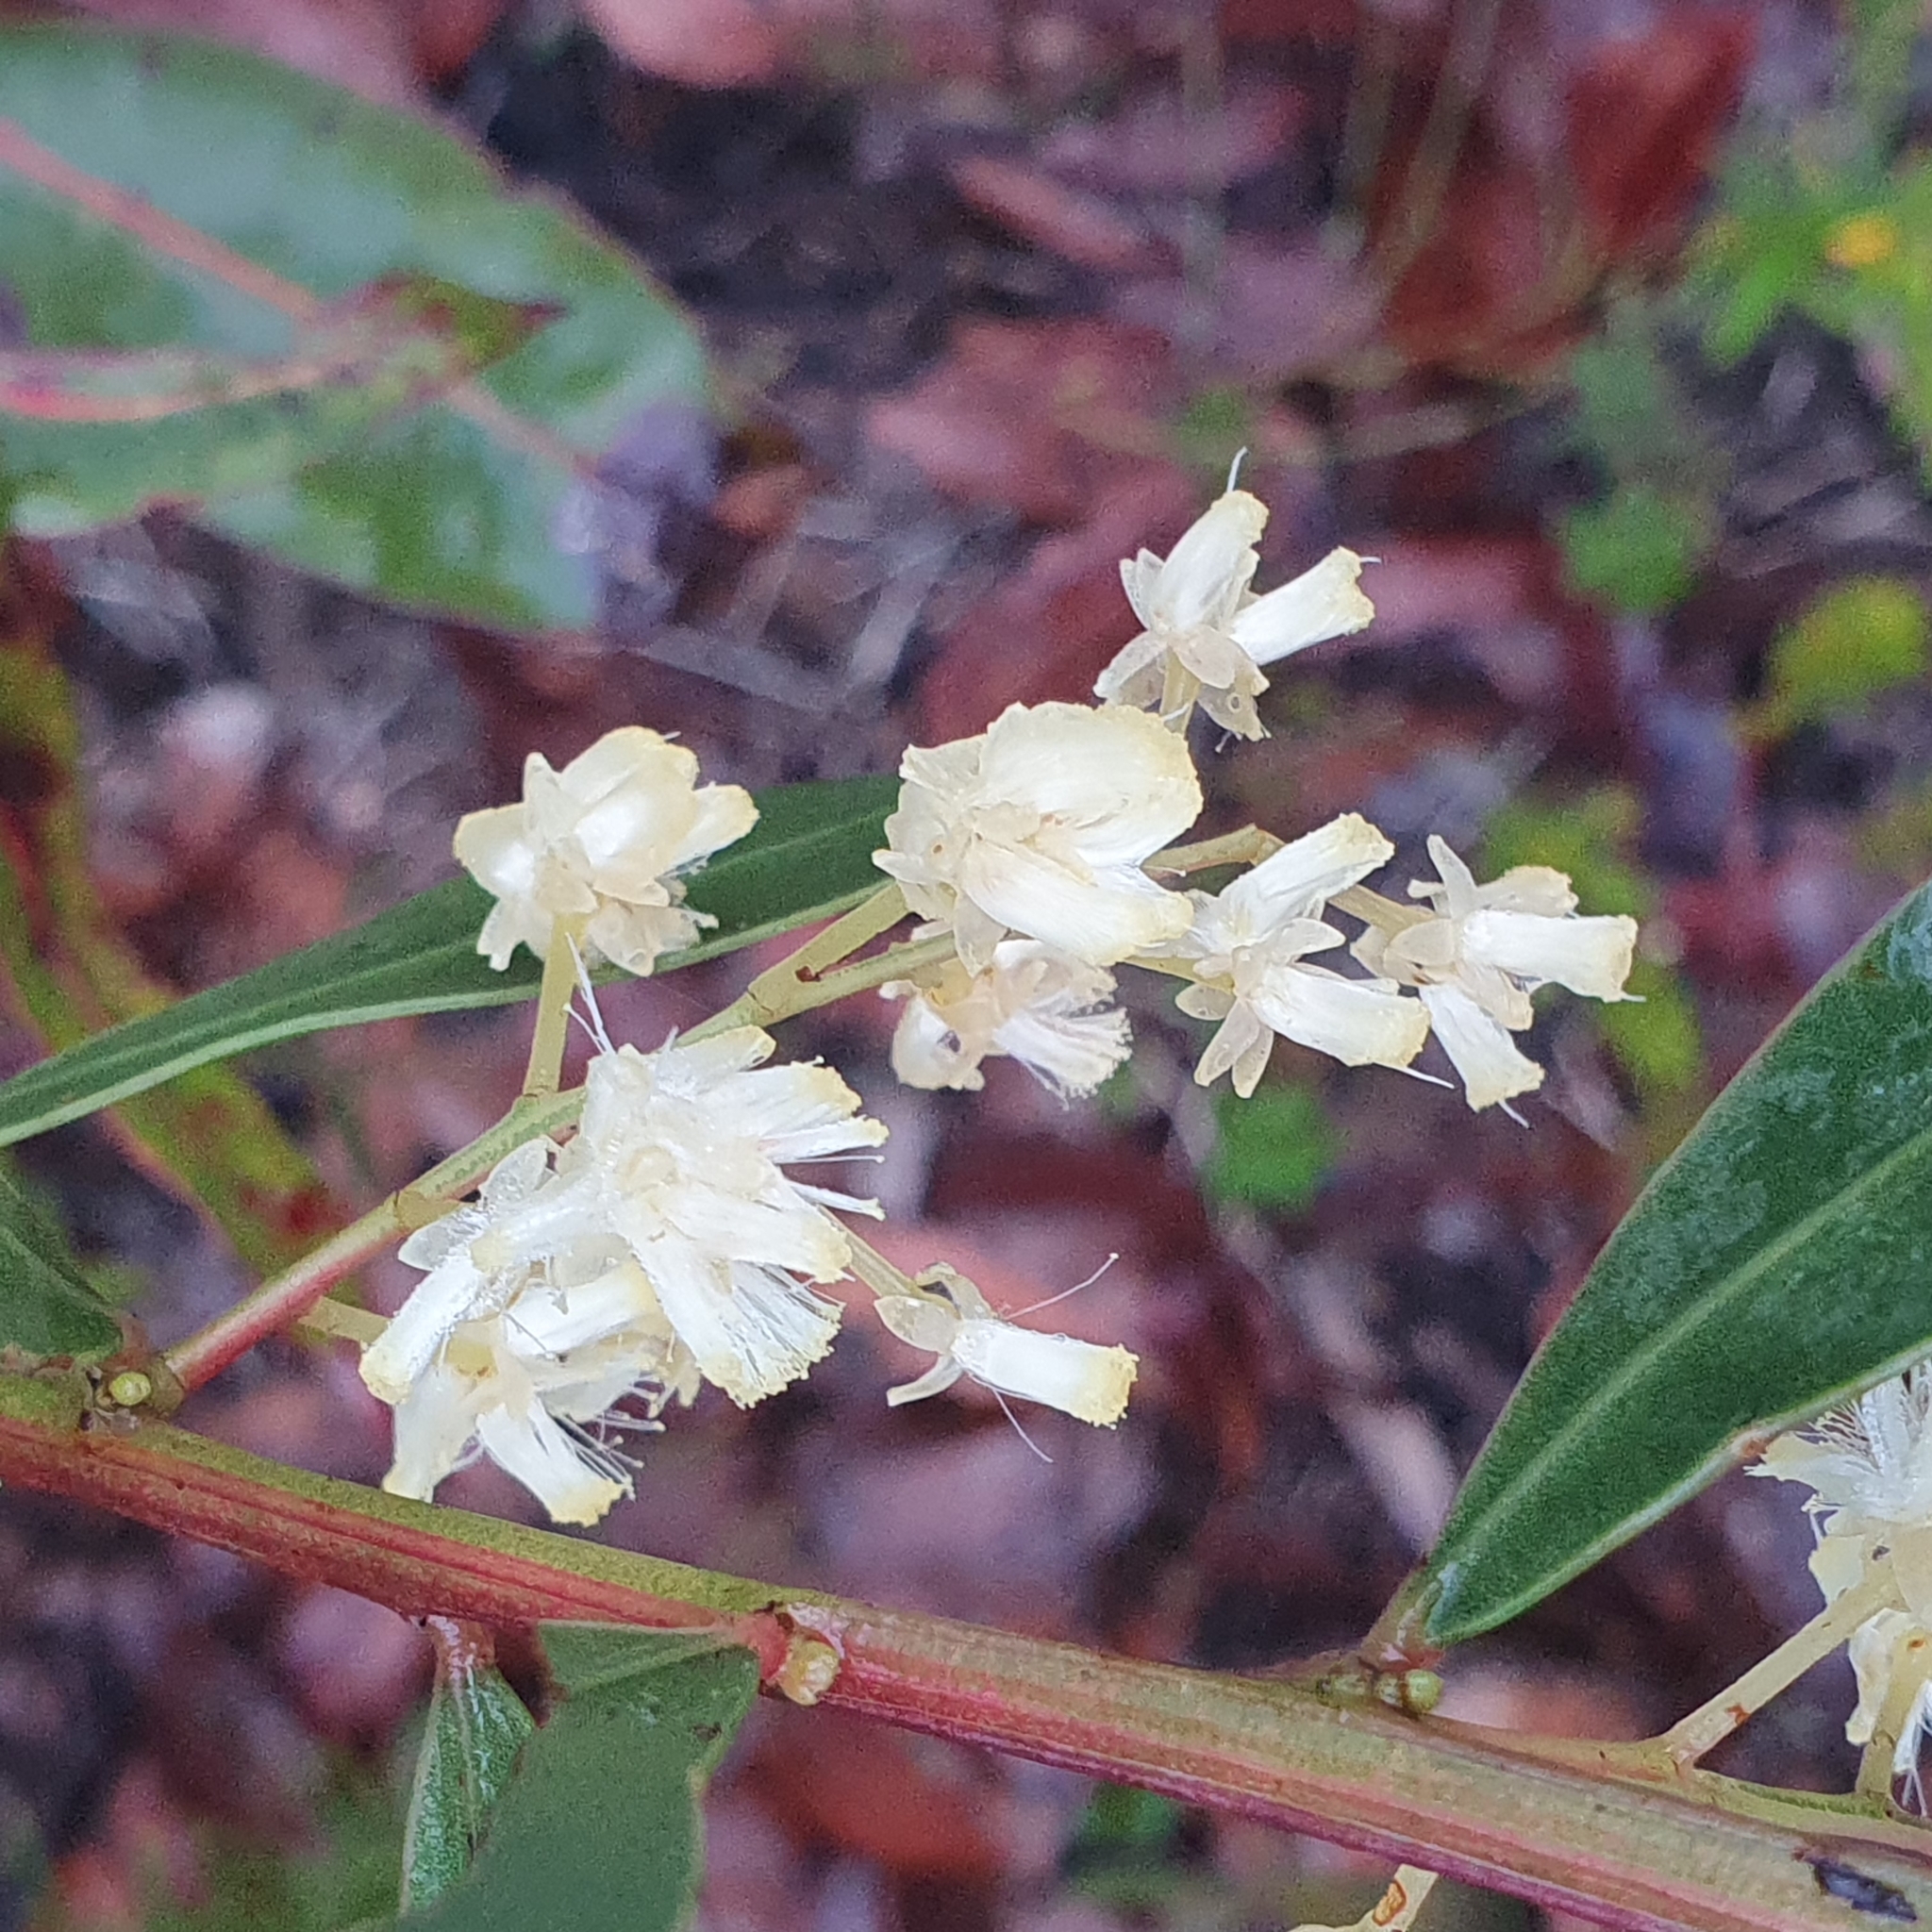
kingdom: Plantae
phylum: Tracheophyta
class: Magnoliopsida
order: Fabales
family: Fabaceae
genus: Acacia
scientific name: Acacia myrtifolia
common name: Myrtle wattle
